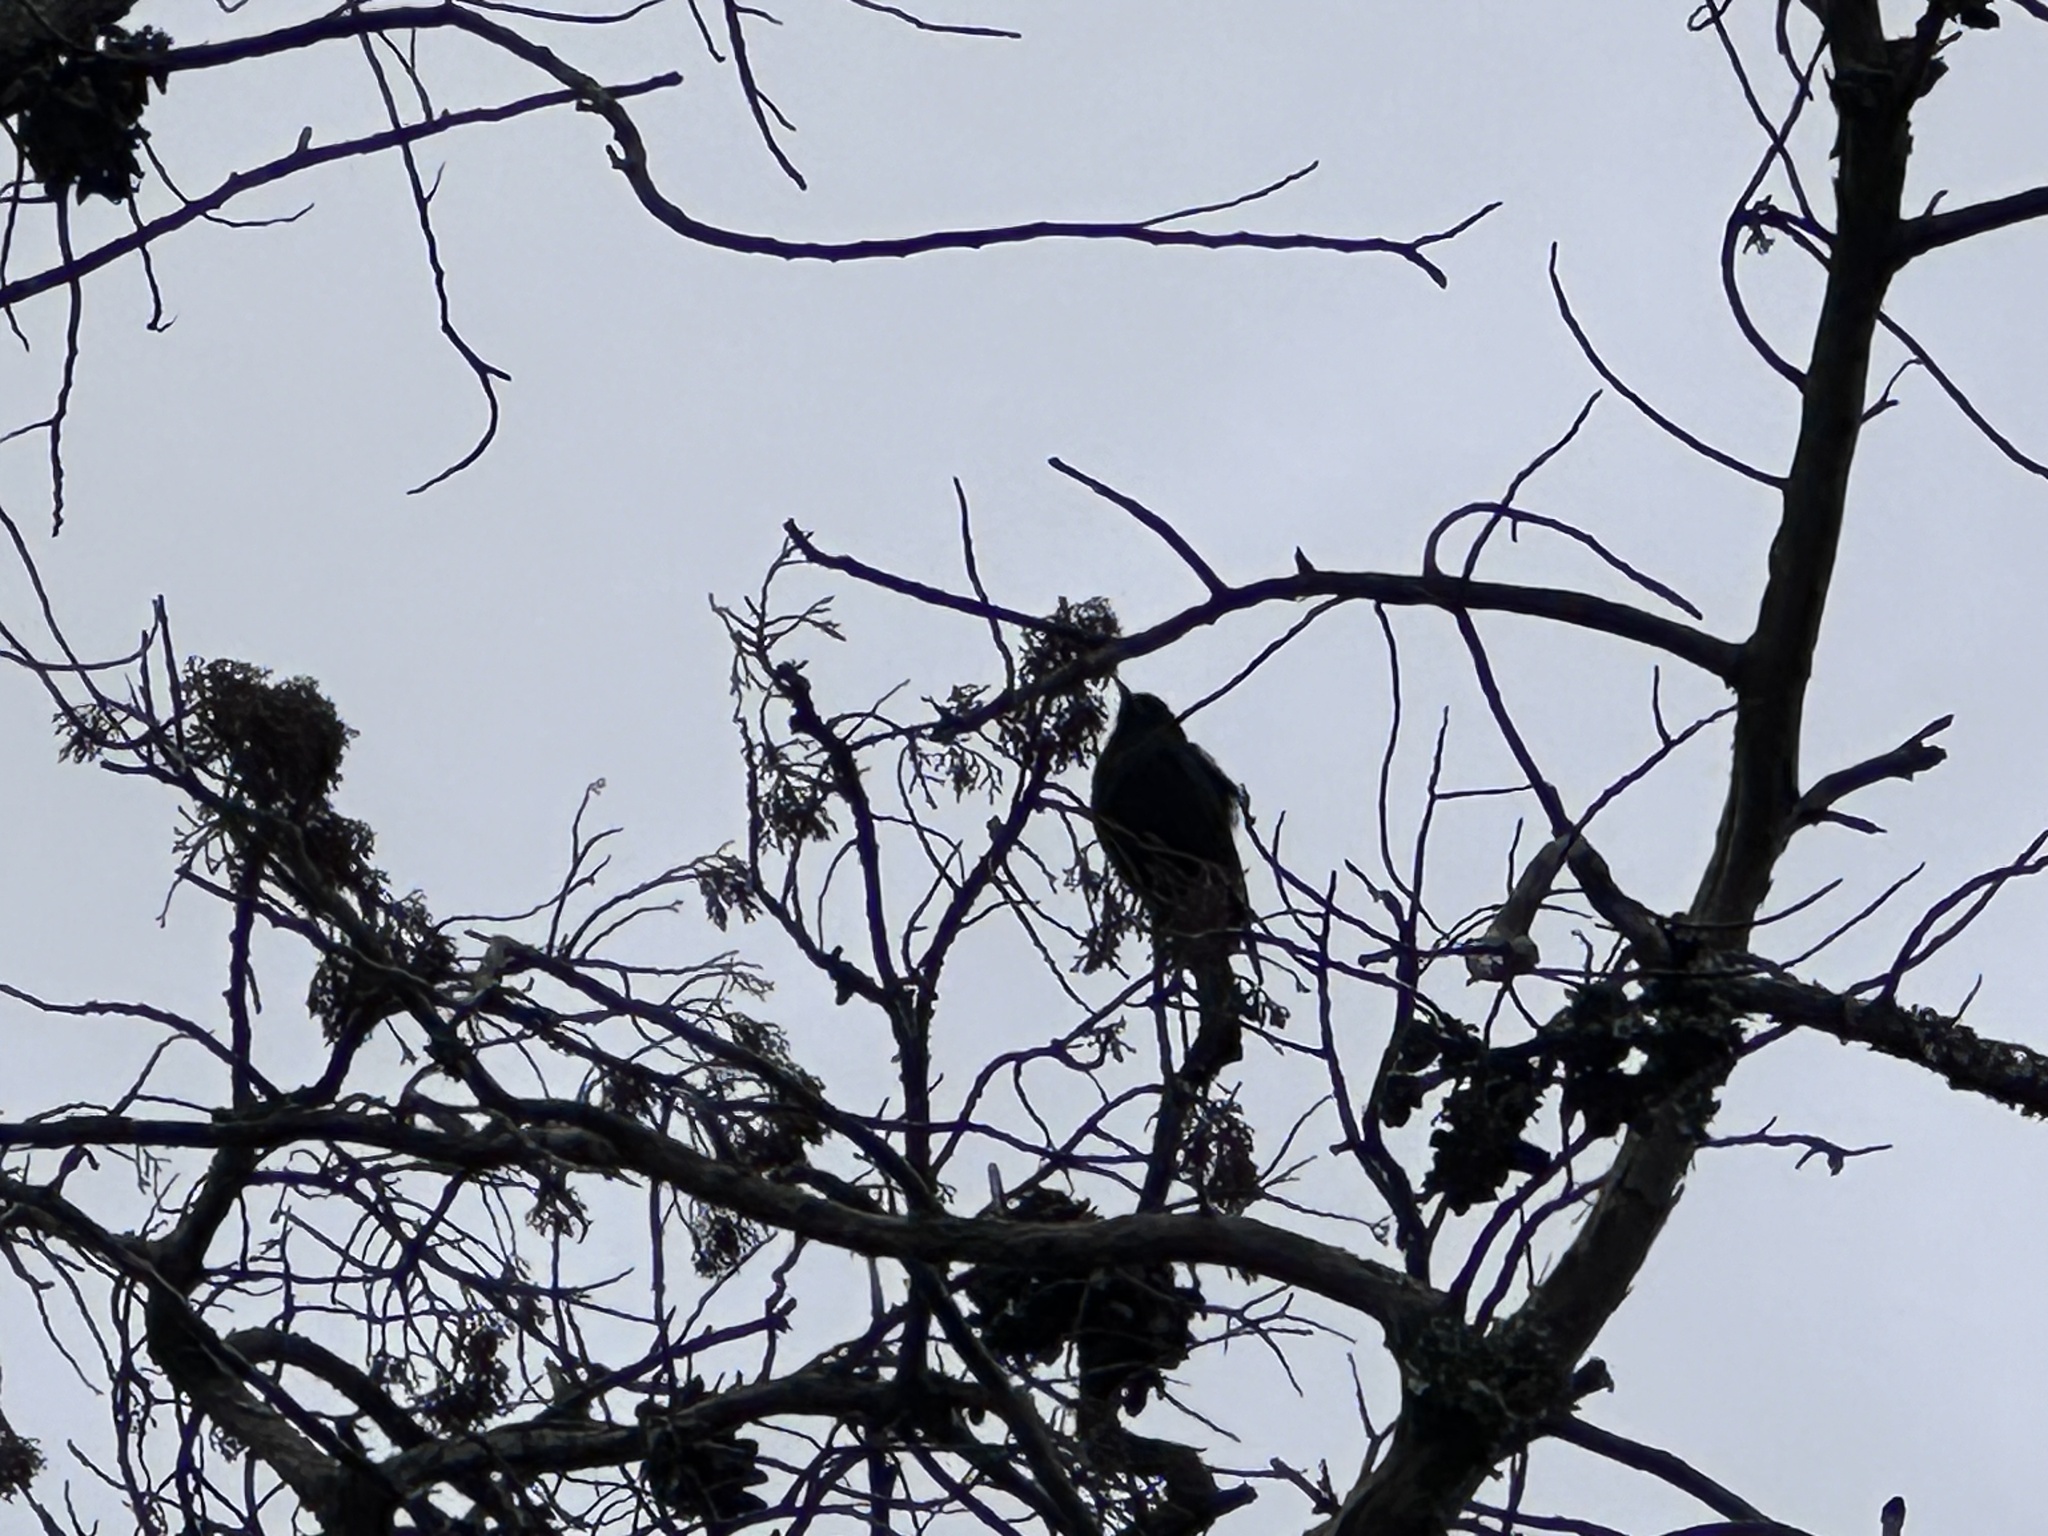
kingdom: Animalia
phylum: Chordata
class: Aves
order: Passeriformes
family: Dicruridae
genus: Dicrurus
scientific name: Dicrurus adsimilis
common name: Fork-tailed drongo
